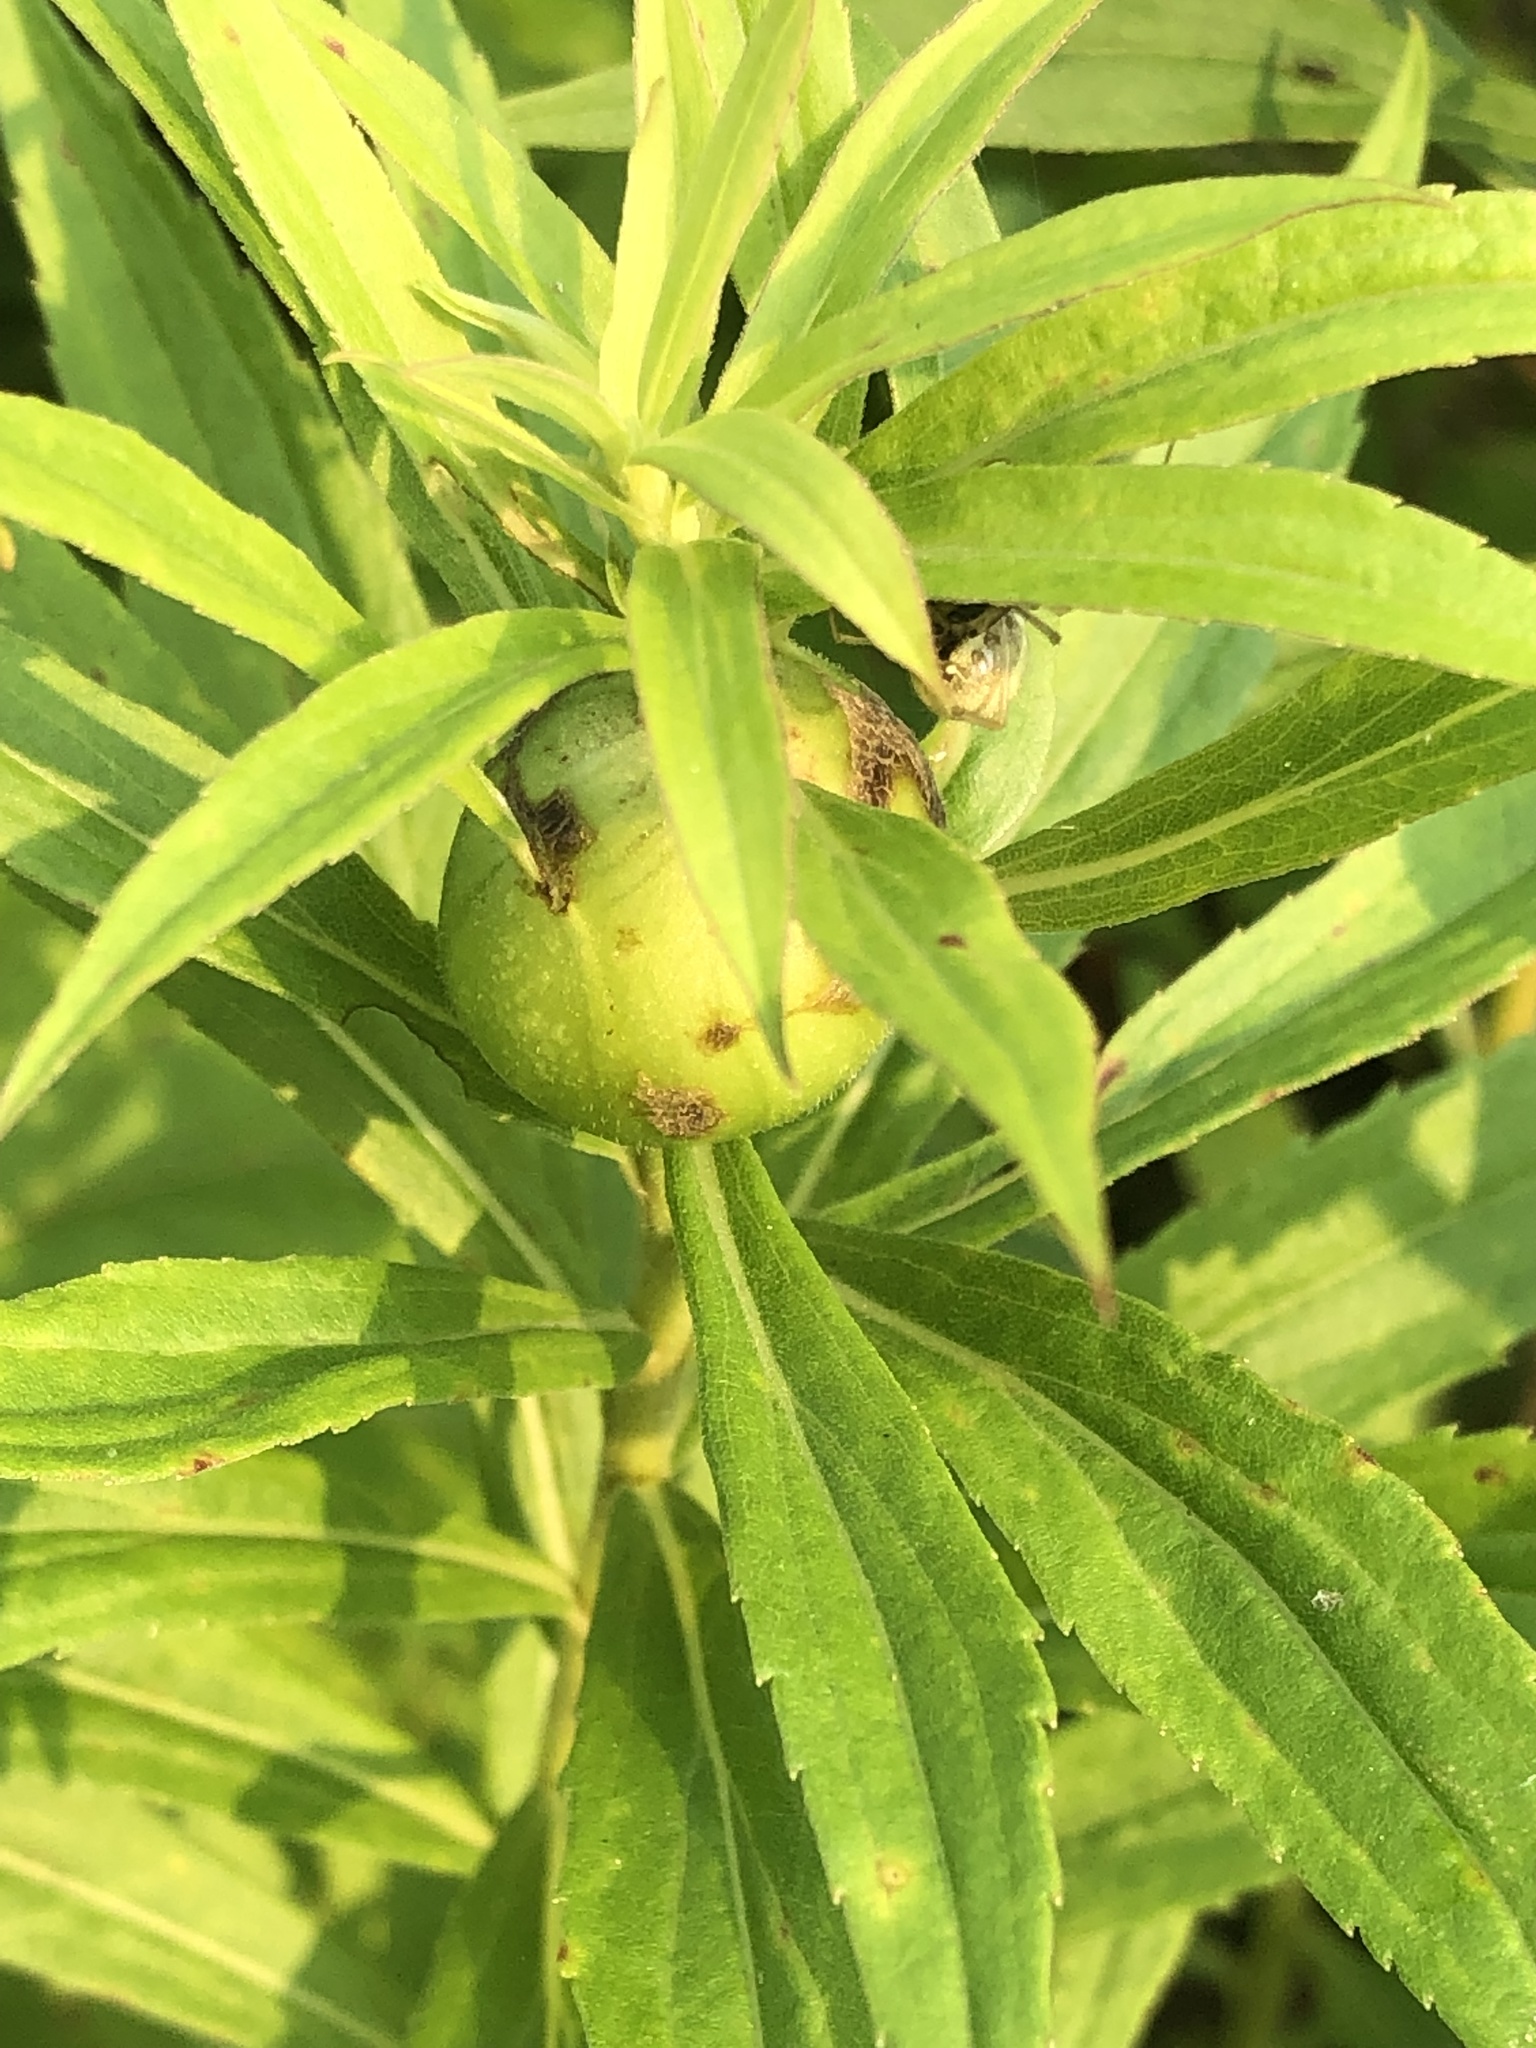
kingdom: Animalia
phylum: Arthropoda
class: Insecta
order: Diptera
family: Tephritidae
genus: Eurosta
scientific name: Eurosta solidaginis
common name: Goldenrod gall fly
